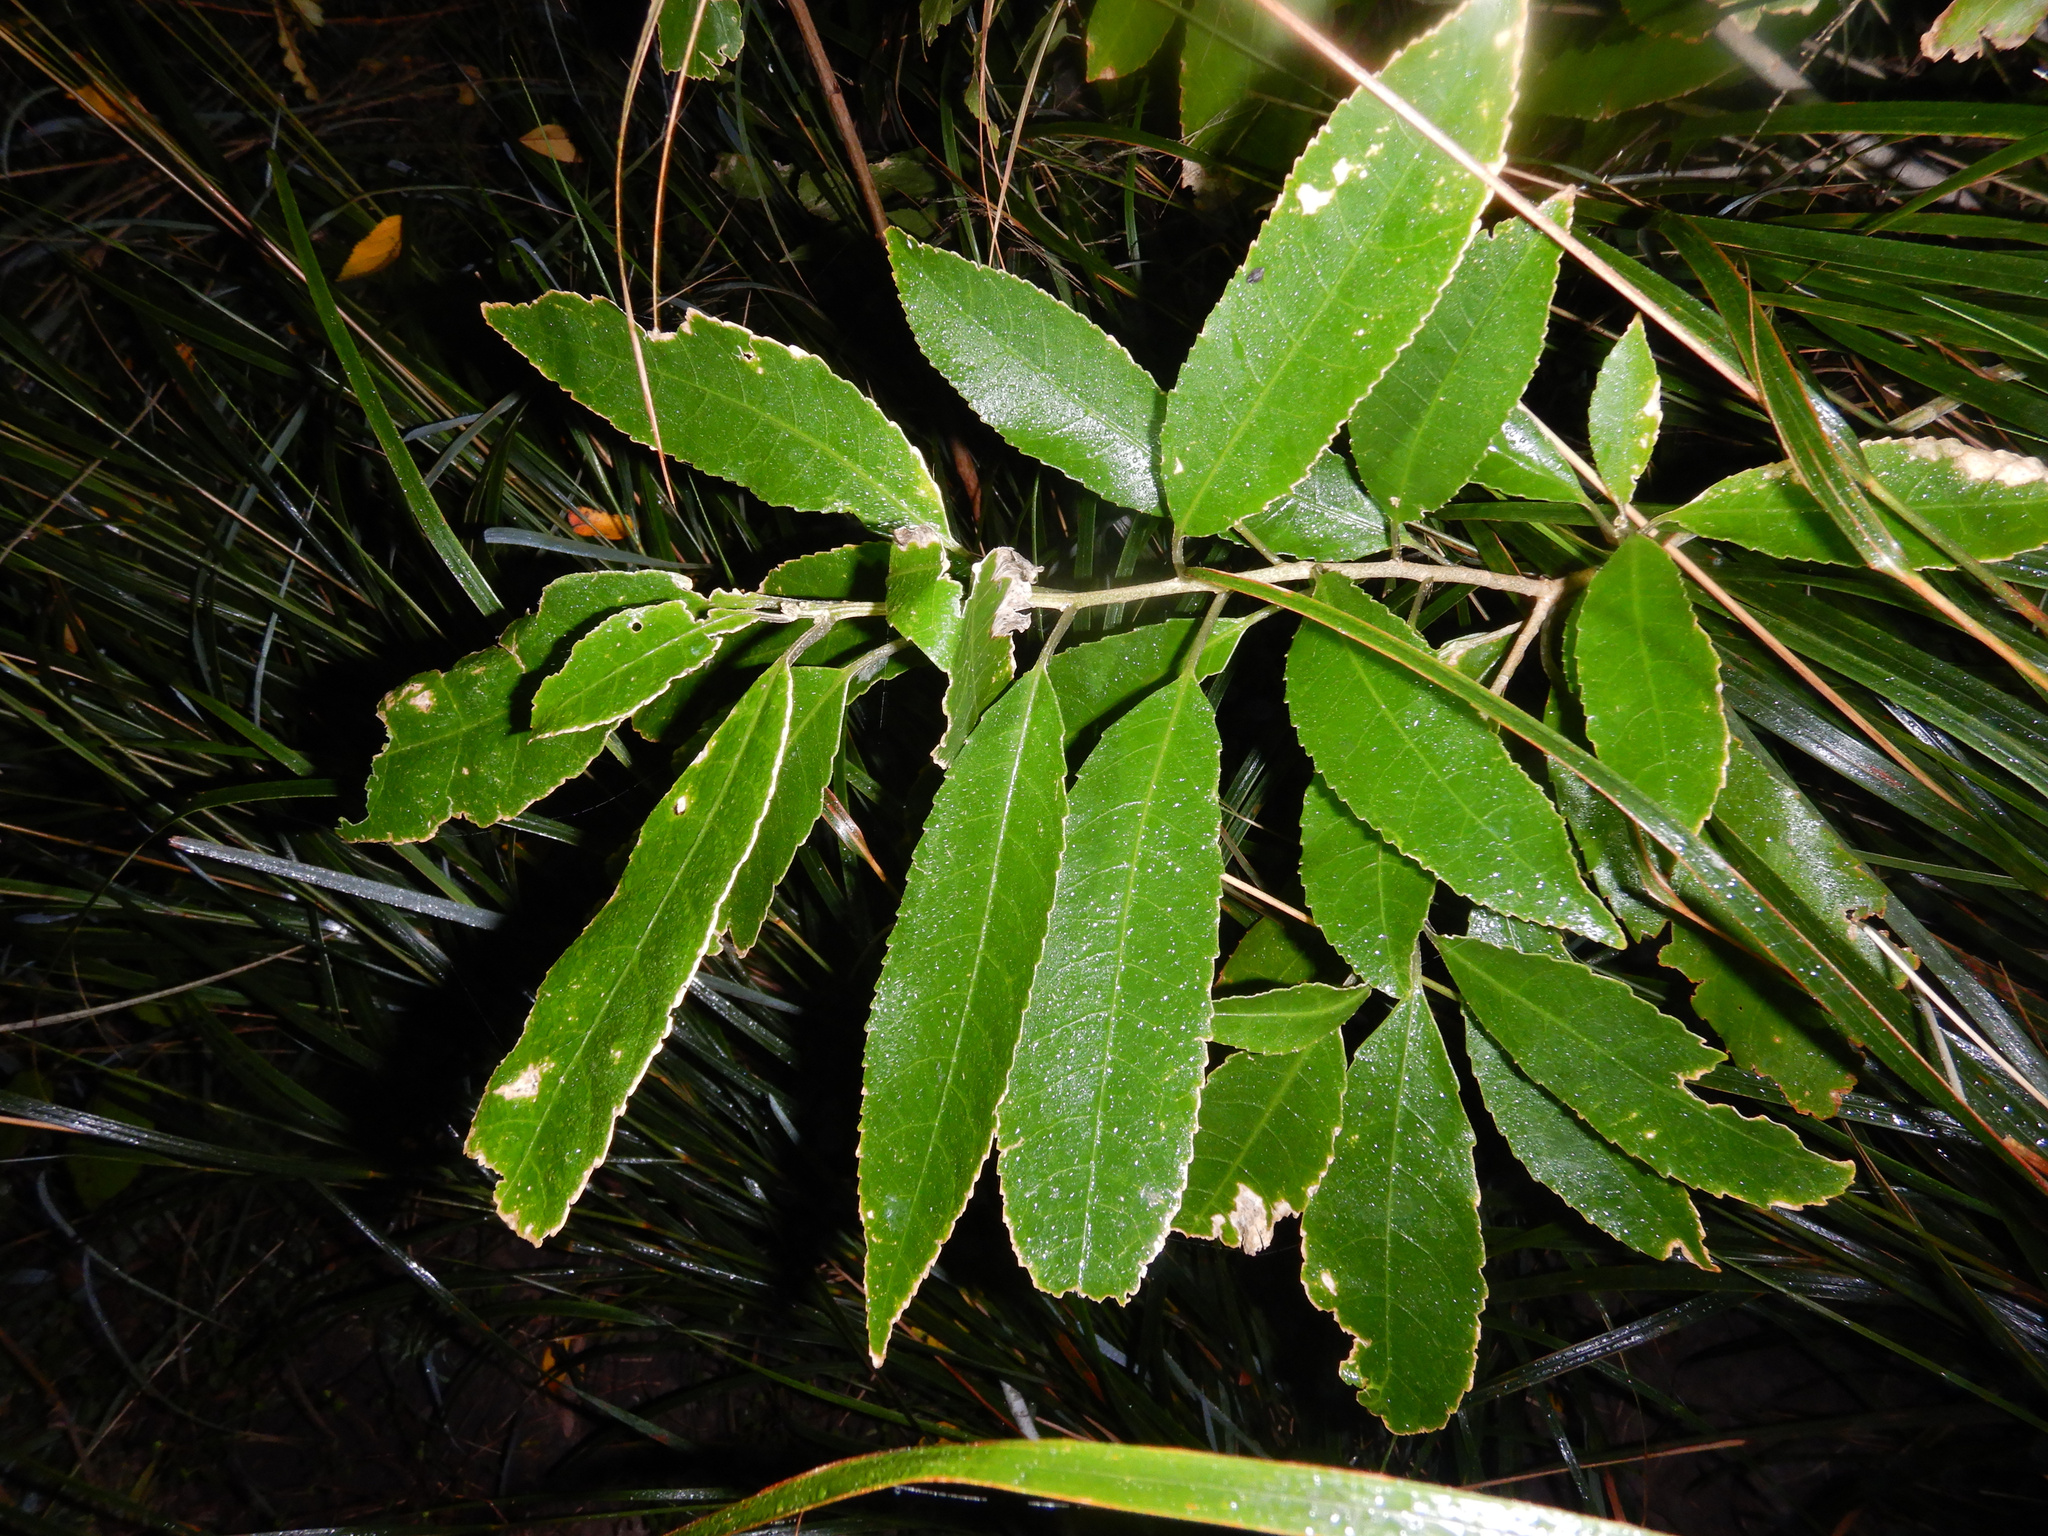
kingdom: Plantae
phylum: Tracheophyta
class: Magnoliopsida
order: Malpighiales
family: Violaceae
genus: Melicytus
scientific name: Melicytus ramiflorus
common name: Mahoe
